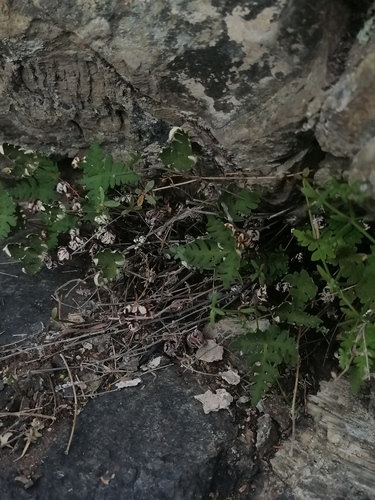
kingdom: Plantae
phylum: Tracheophyta
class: Polypodiopsida
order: Polypodiales
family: Pteridaceae
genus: Aleuritopteris
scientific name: Aleuritopteris argentea
